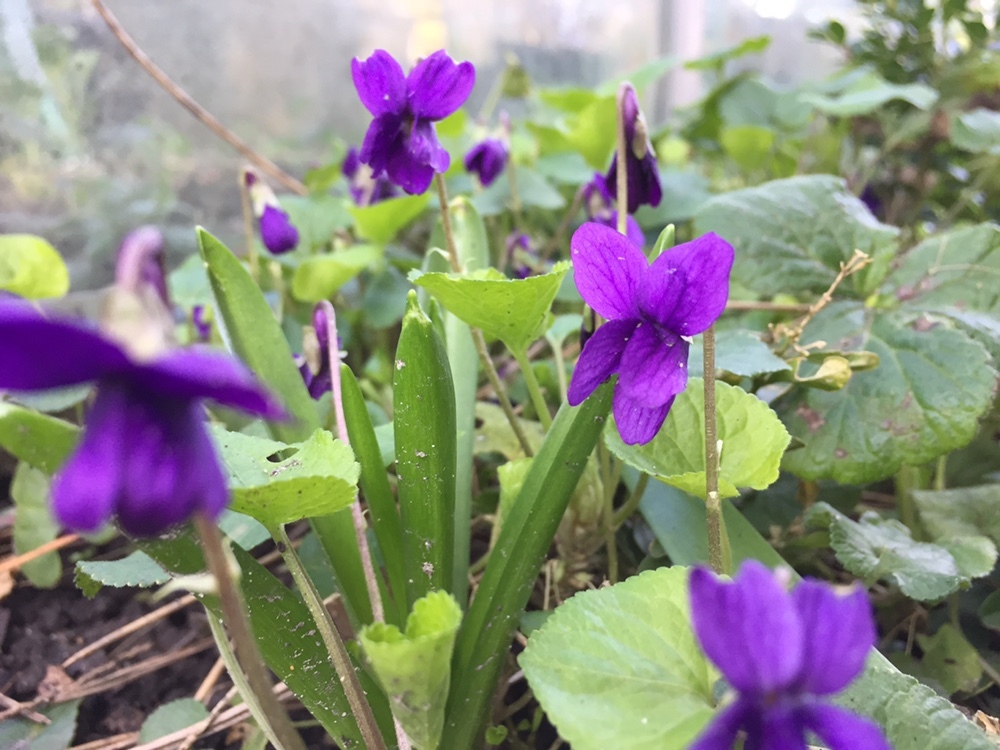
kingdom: Plantae
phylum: Tracheophyta
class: Magnoliopsida
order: Malpighiales
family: Violaceae
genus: Viola
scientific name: Viola odorata
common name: Sweet violet
